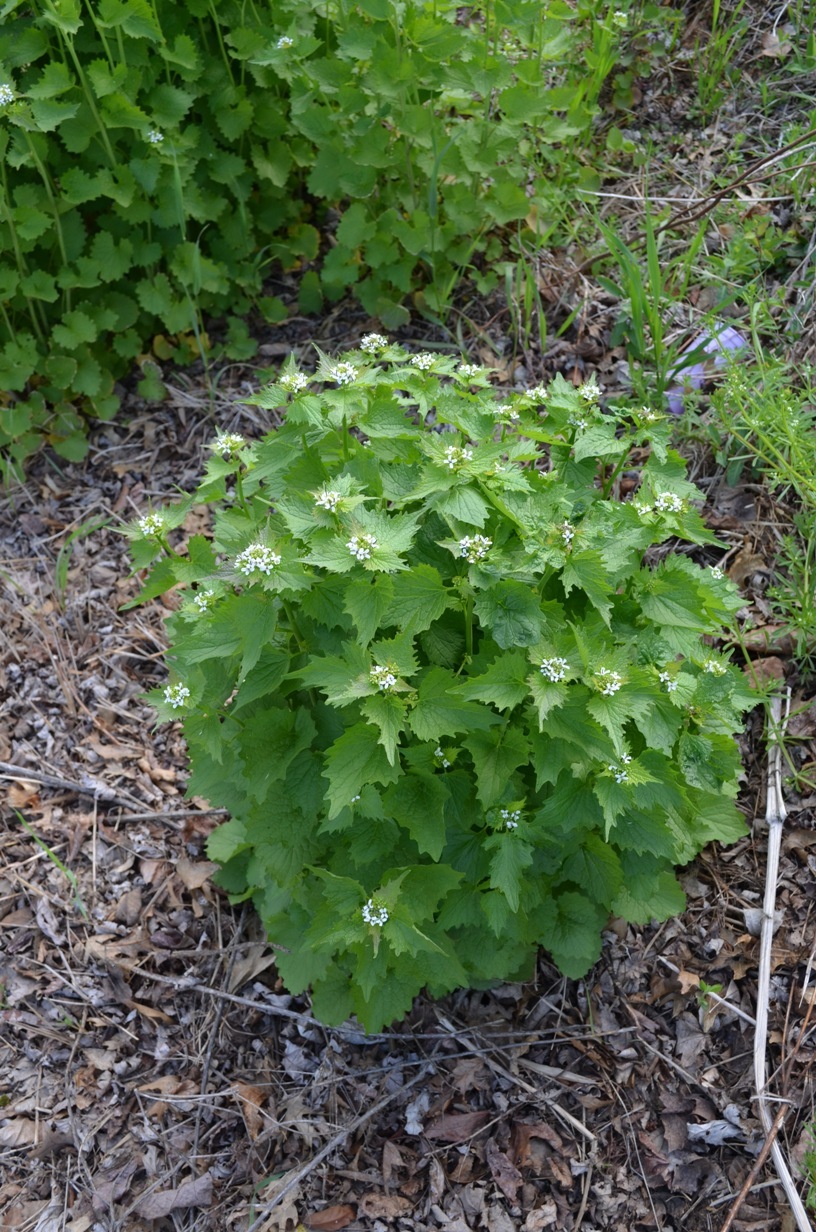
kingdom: Plantae
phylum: Tracheophyta
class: Magnoliopsida
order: Brassicales
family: Brassicaceae
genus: Alliaria
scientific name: Alliaria petiolata
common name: Garlic mustard
